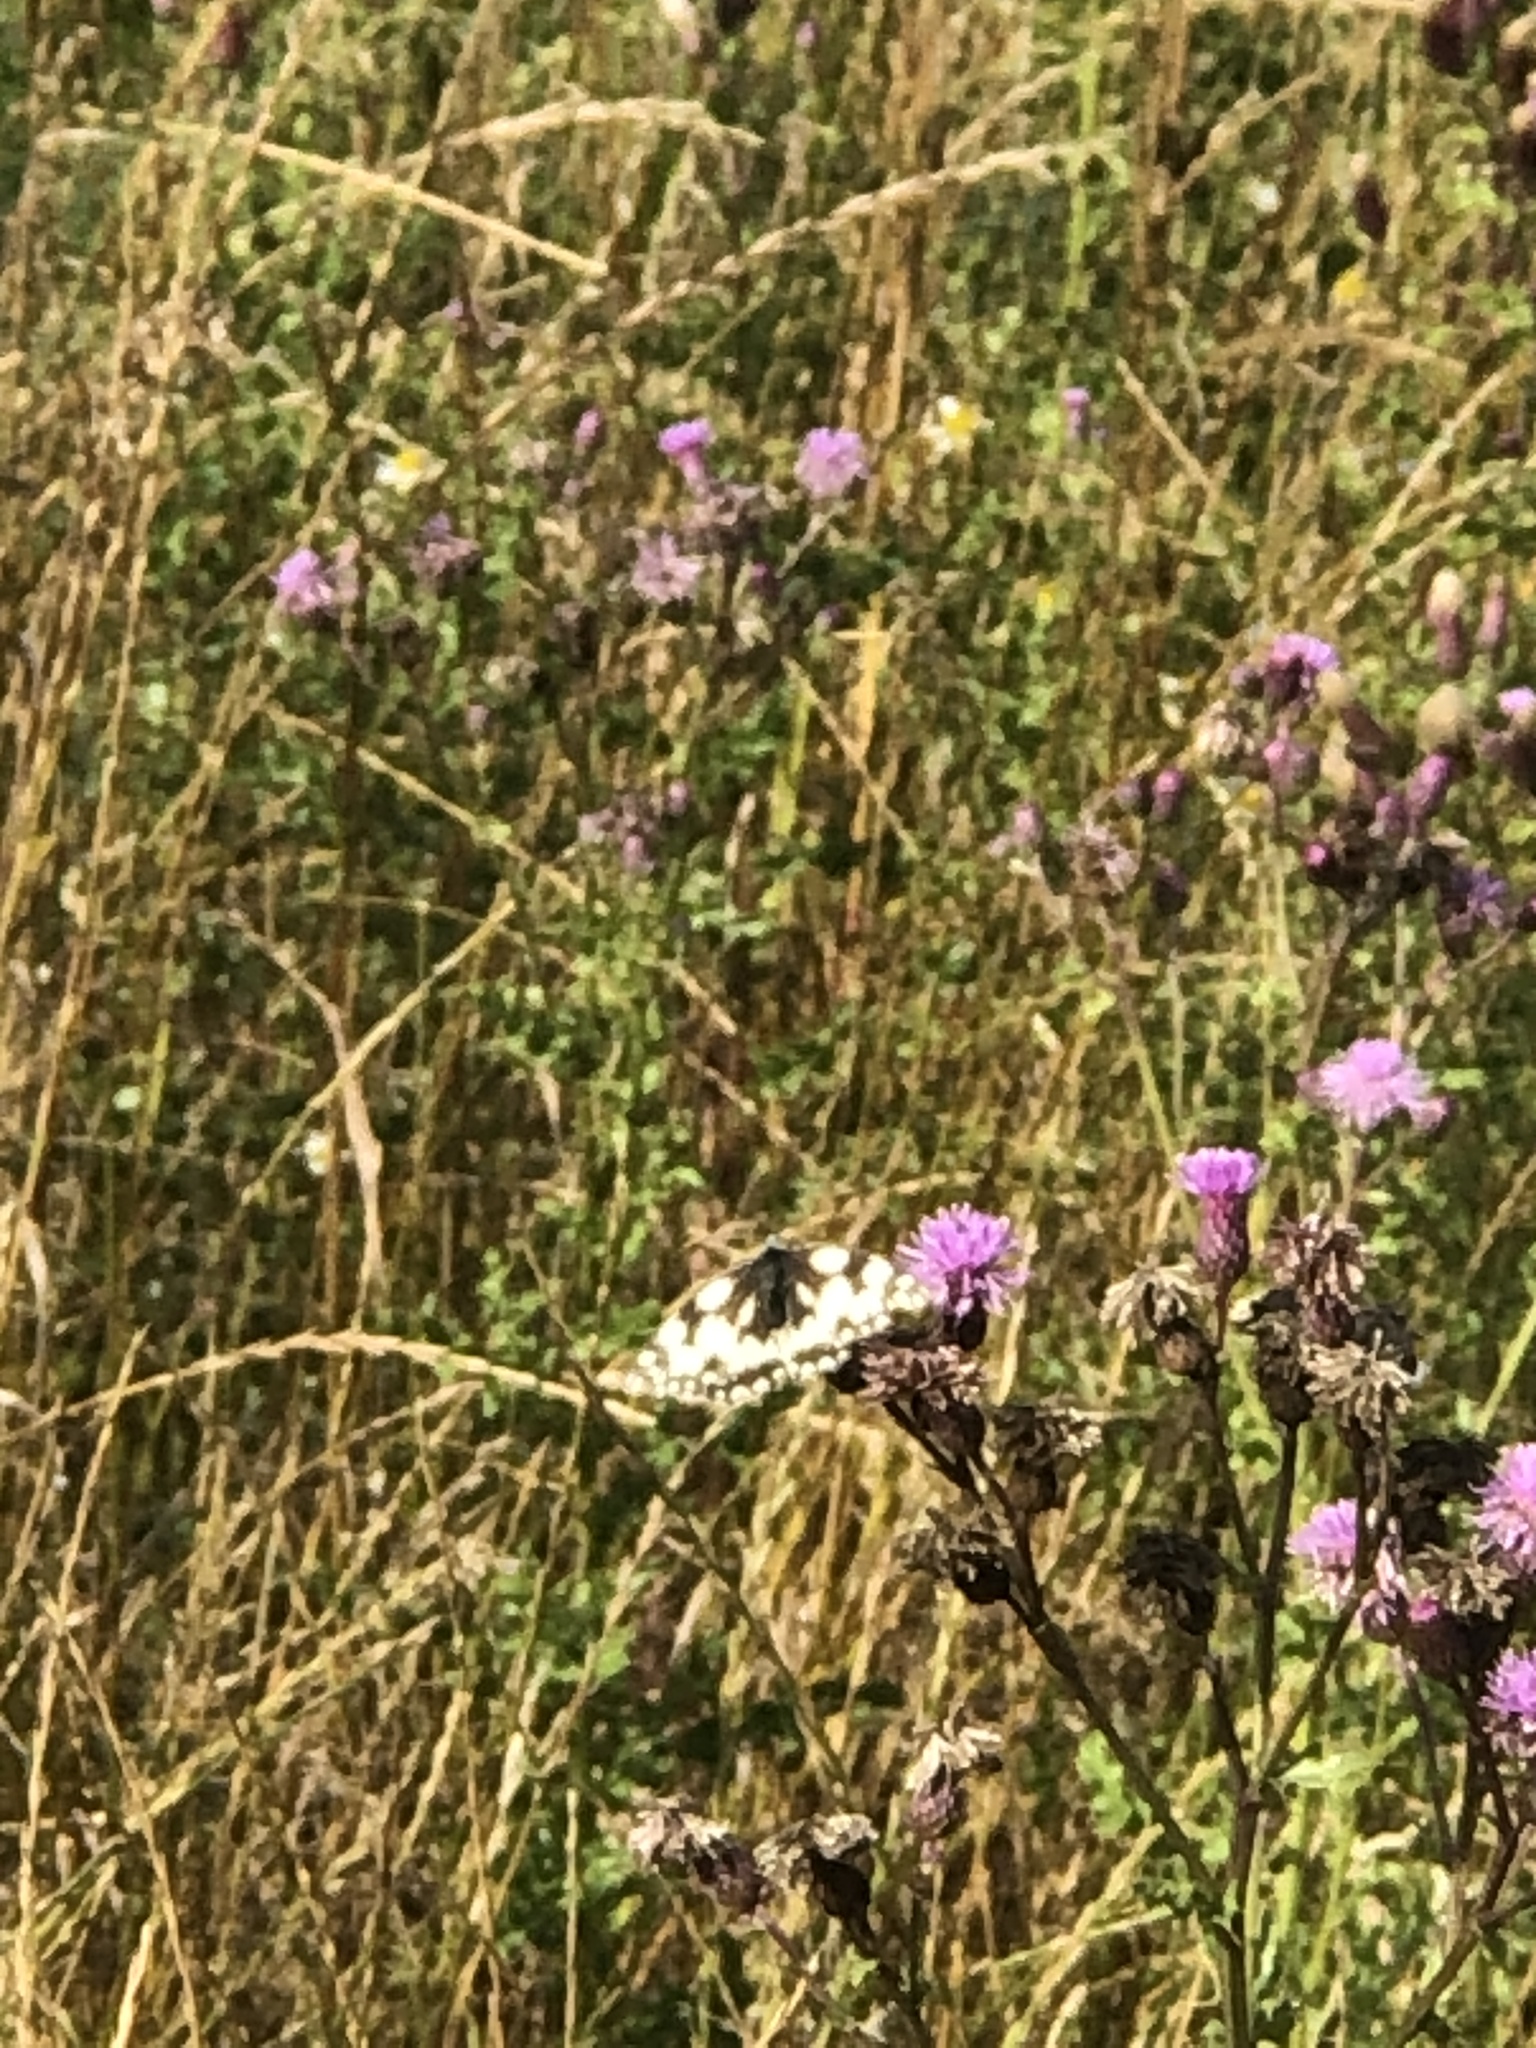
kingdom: Animalia
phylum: Arthropoda
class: Insecta
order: Lepidoptera
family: Nymphalidae
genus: Melanargia
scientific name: Melanargia galathea
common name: Marbled white
